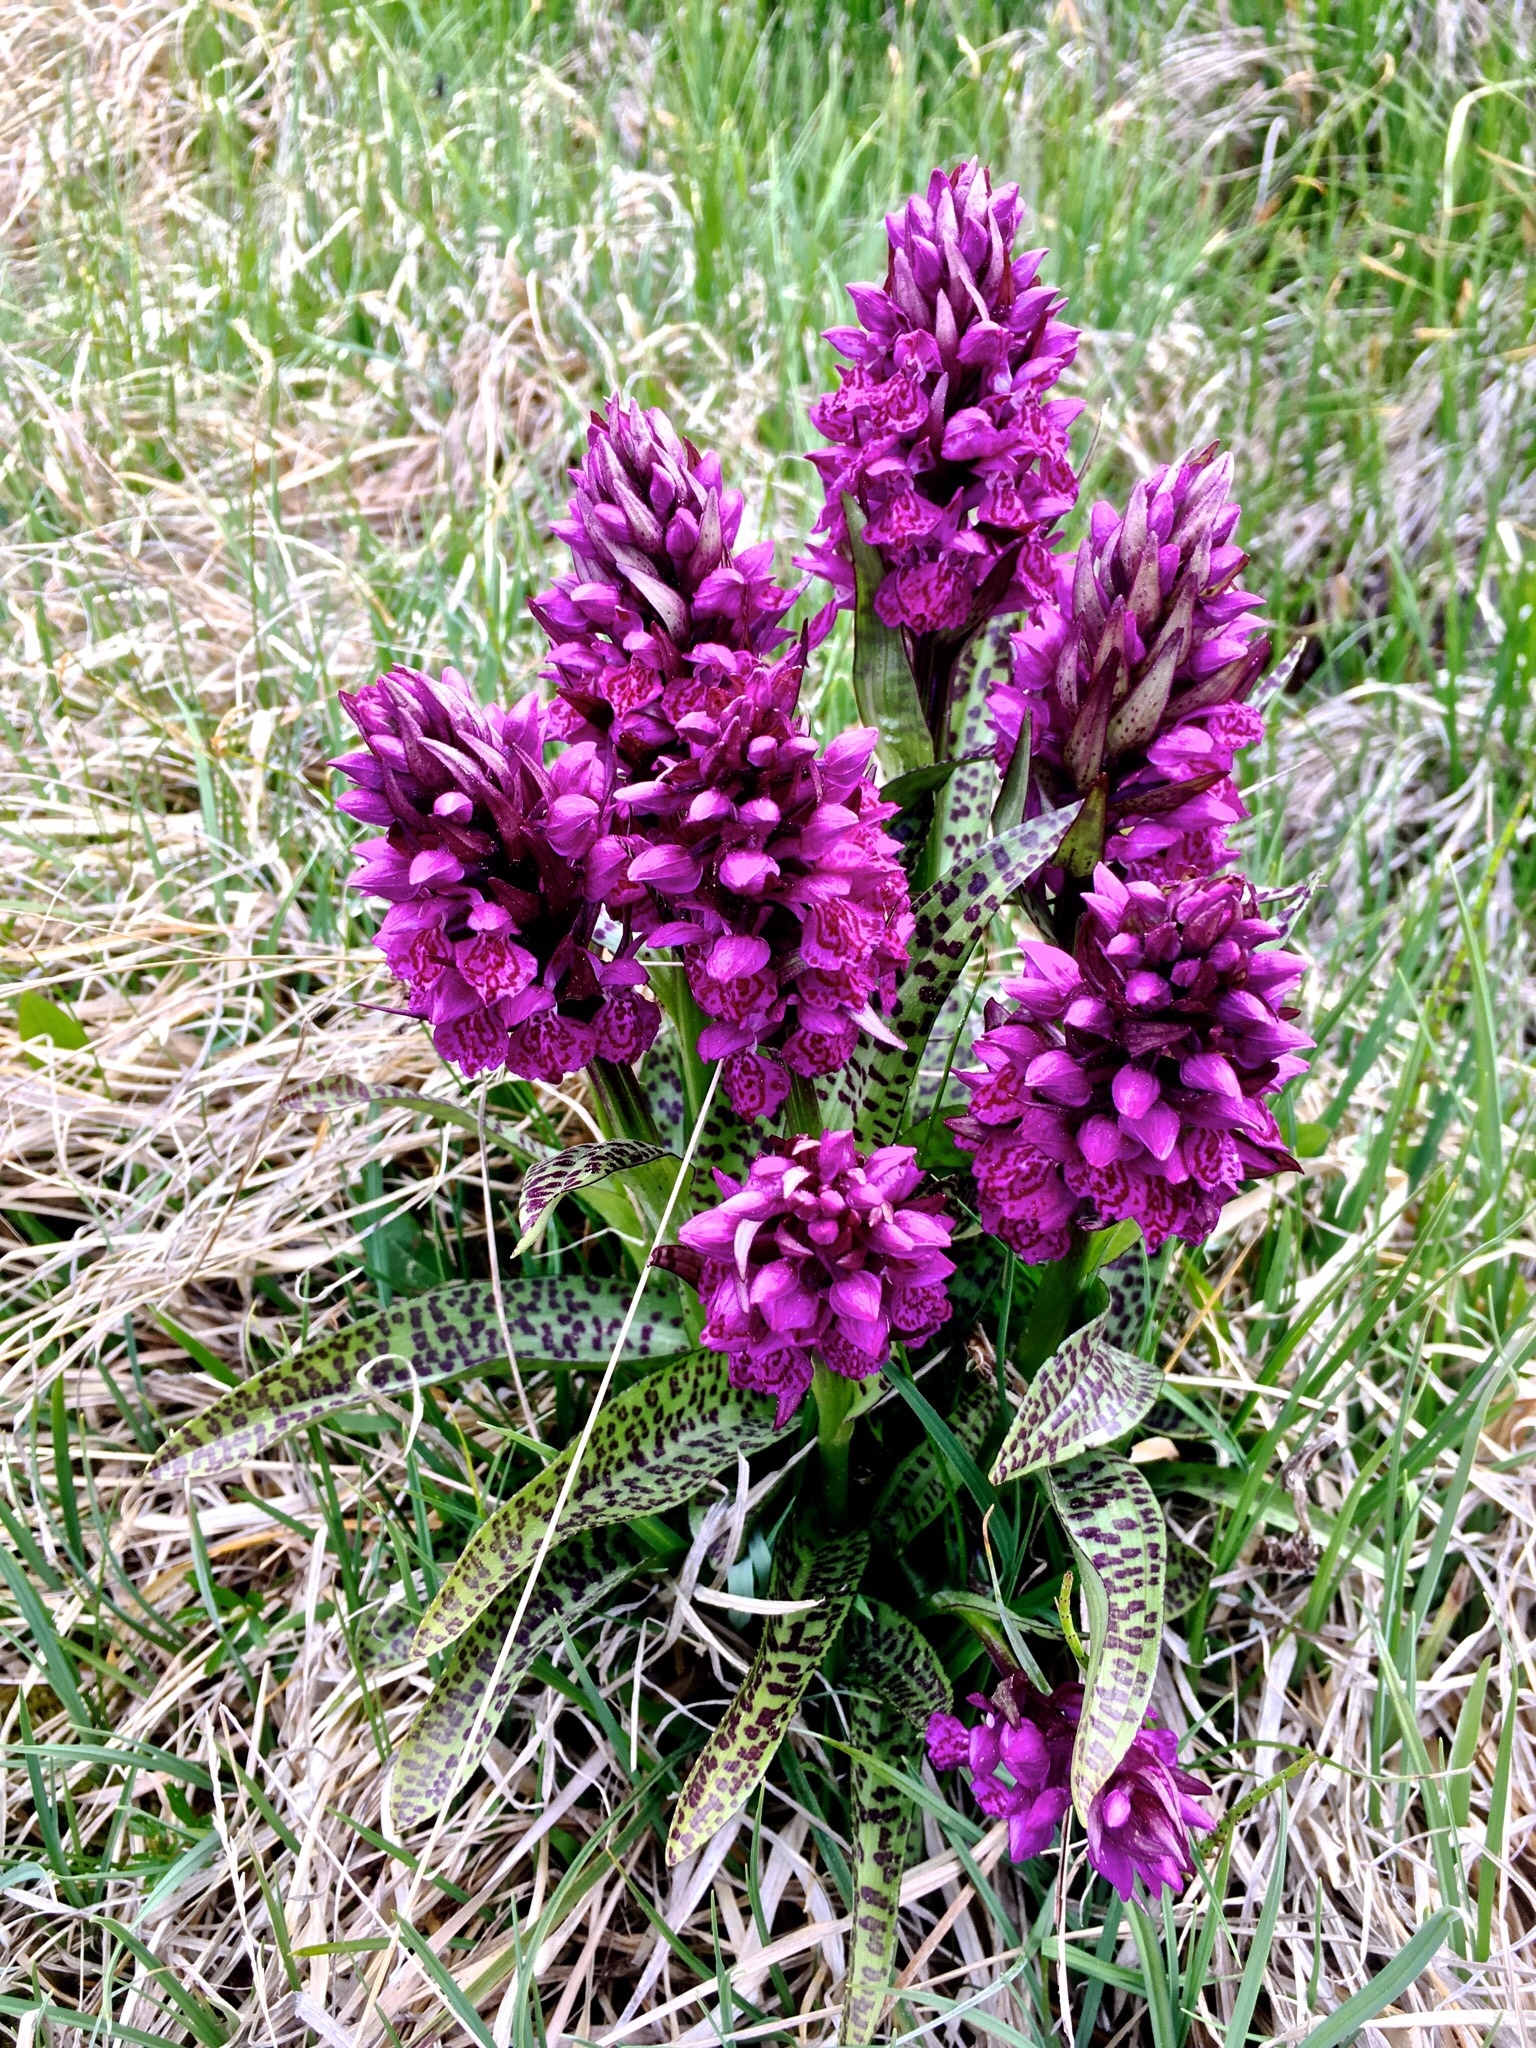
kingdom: Plantae
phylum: Tracheophyta
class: Liliopsida
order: Asparagales
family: Orchidaceae
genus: Dactylorhiza
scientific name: Dactylorhiza majalis
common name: Marsh orchid
